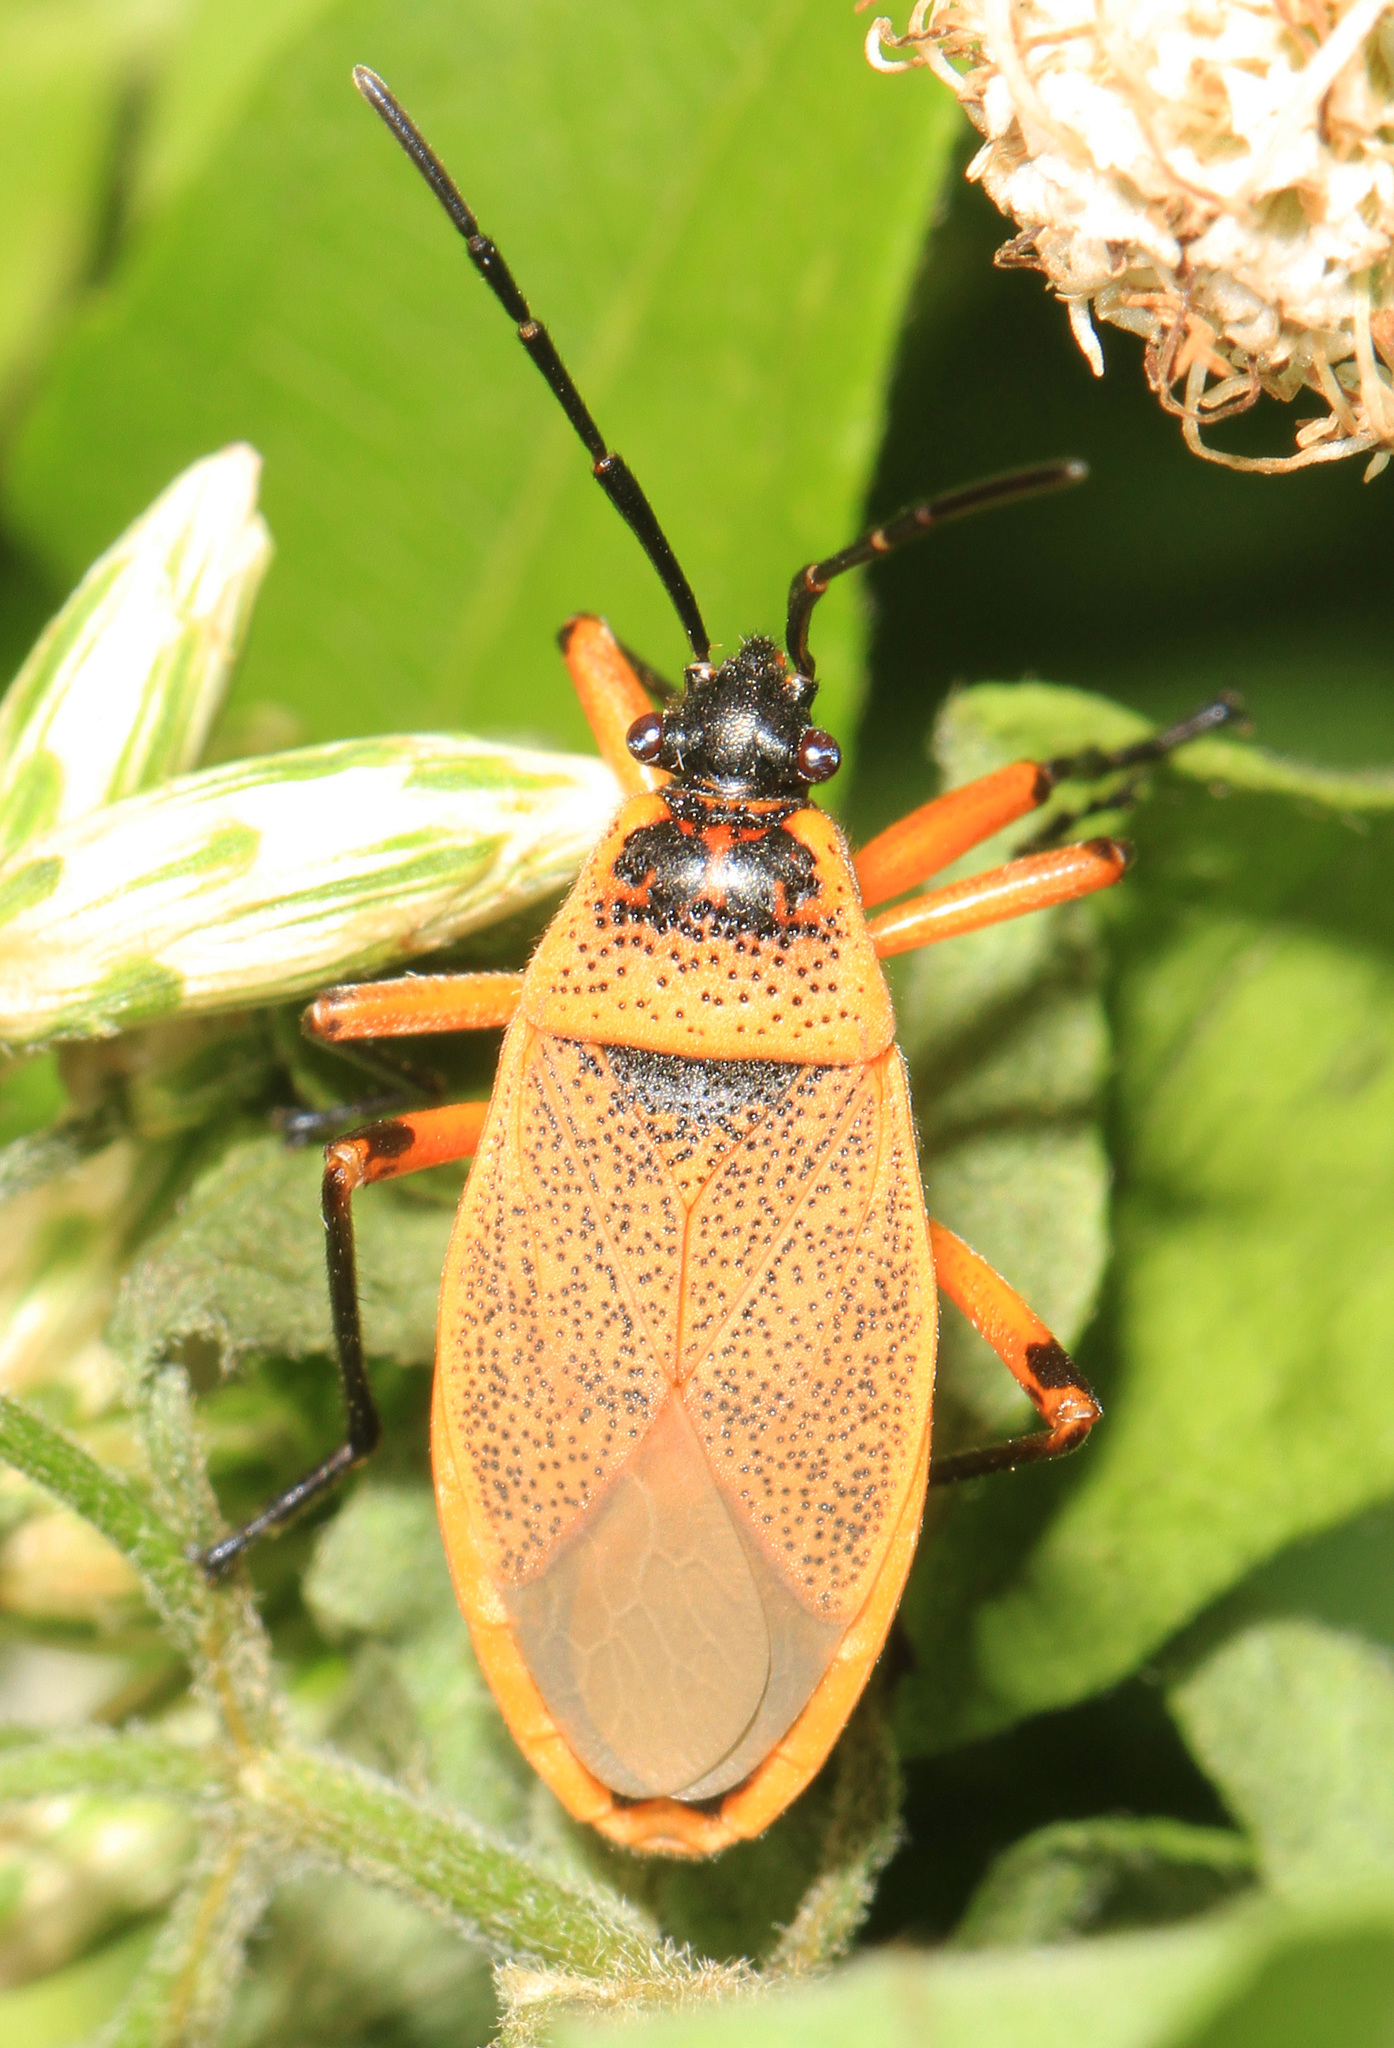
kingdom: Animalia
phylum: Arthropoda
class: Insecta
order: Hemiptera
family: Largidae
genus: Largus
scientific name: Largus davisi
